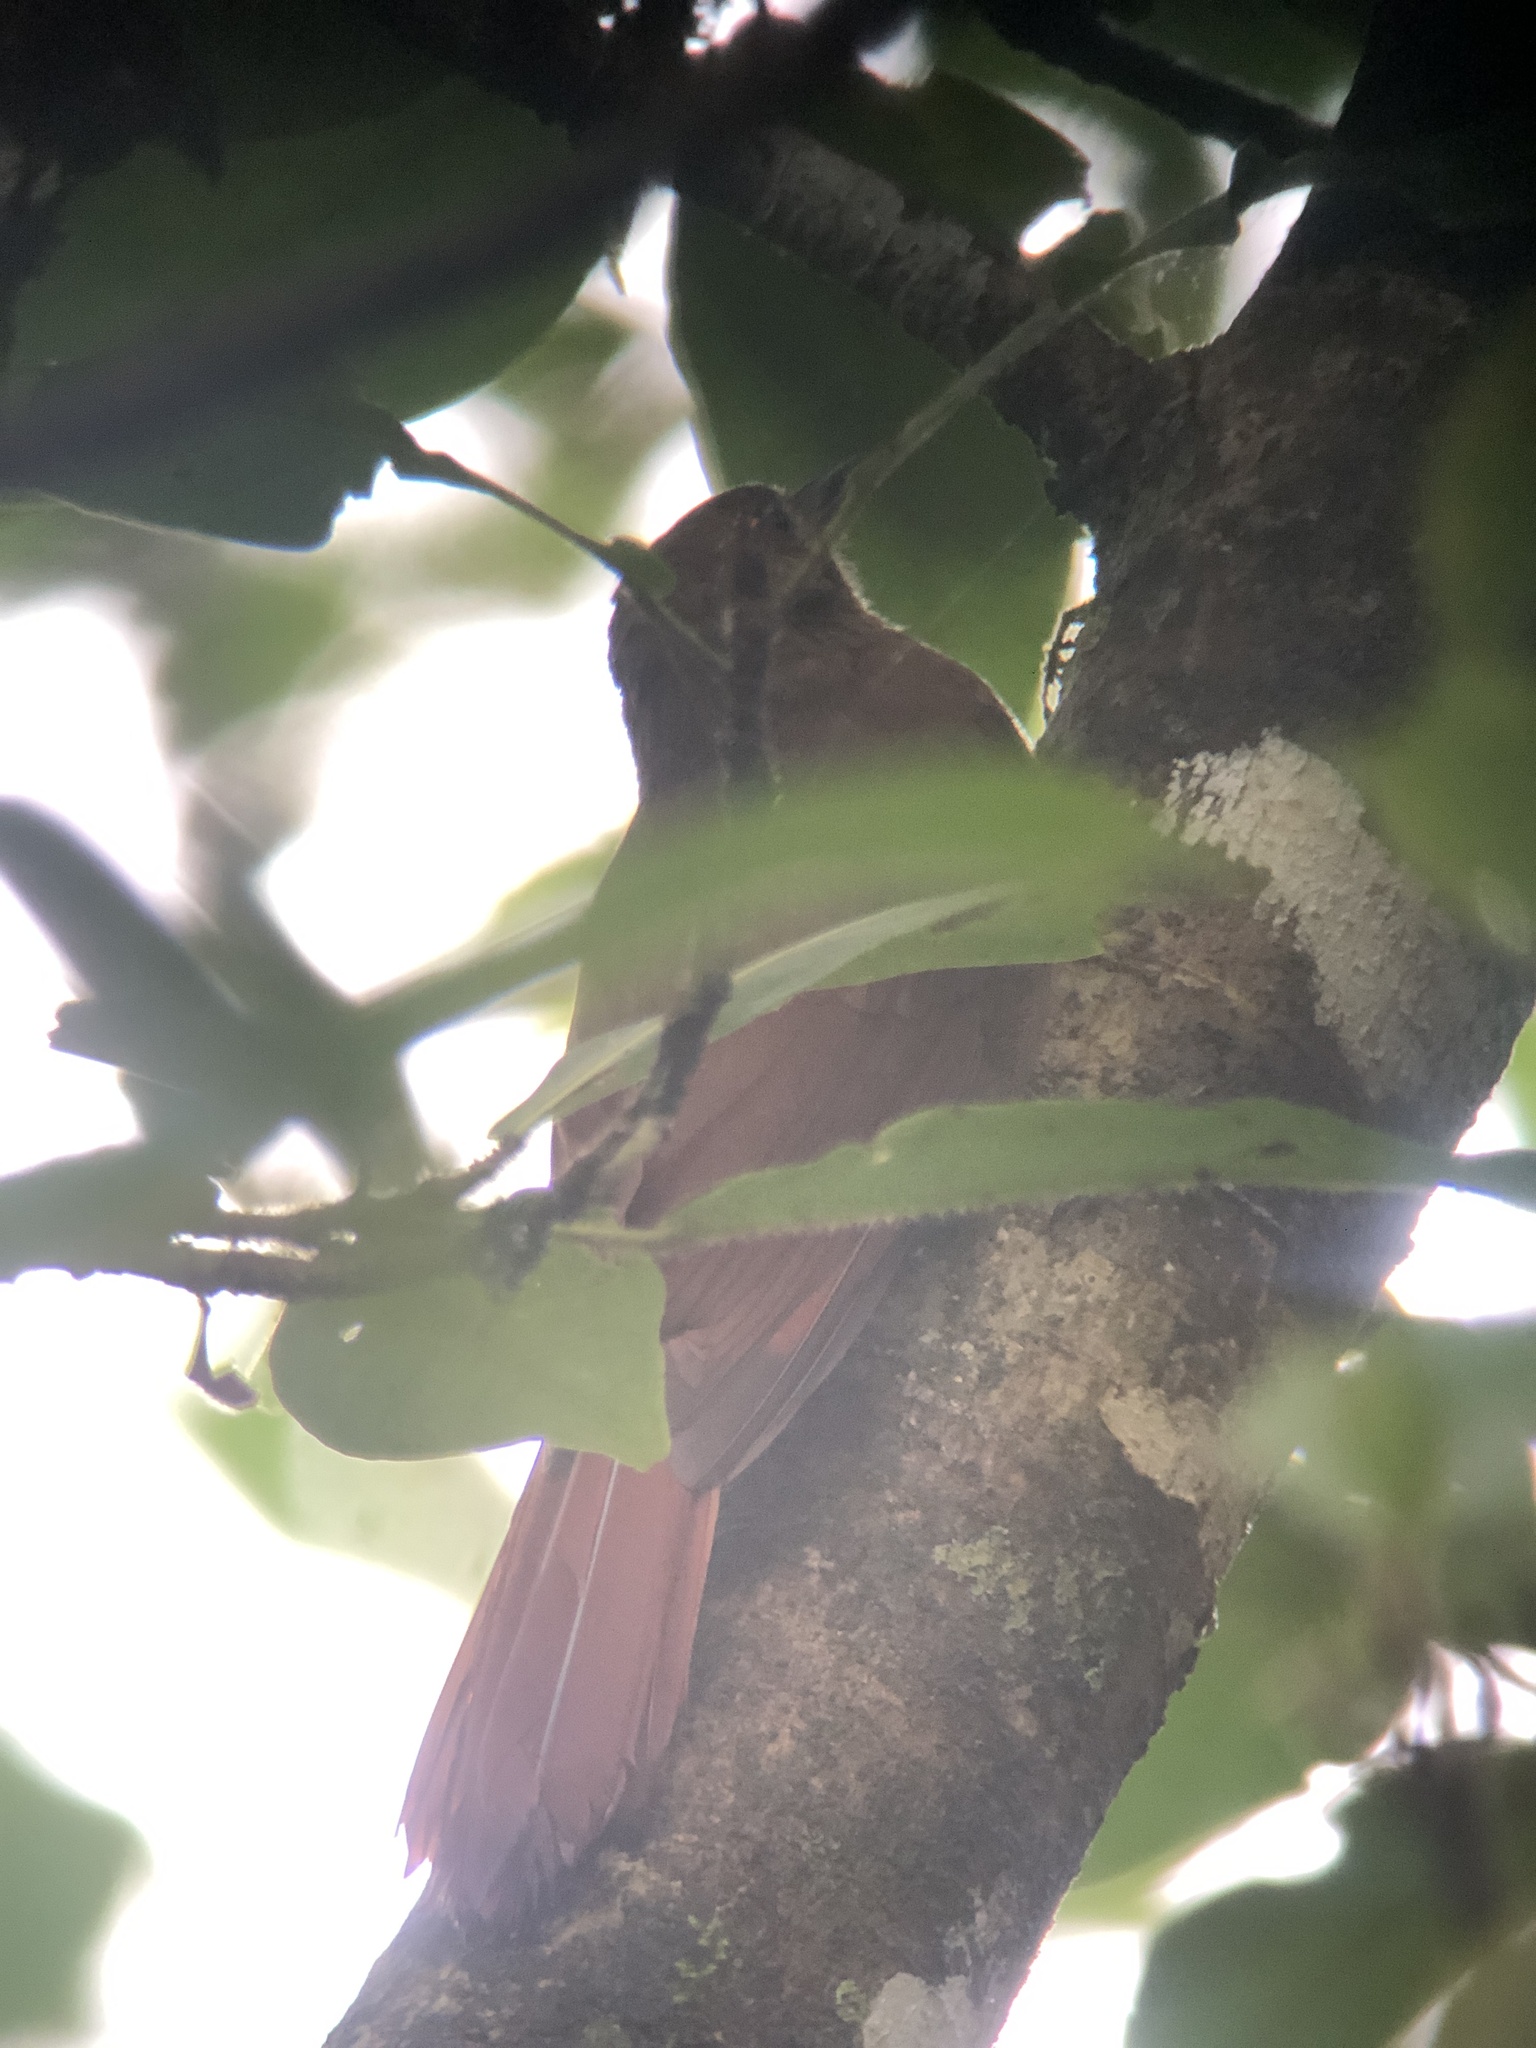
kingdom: Animalia
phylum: Chordata
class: Aves
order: Passeriformes
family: Furnariidae
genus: Dendrocincla
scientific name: Dendrocincla fuliginosa
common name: Plain-brown woodcreeper
